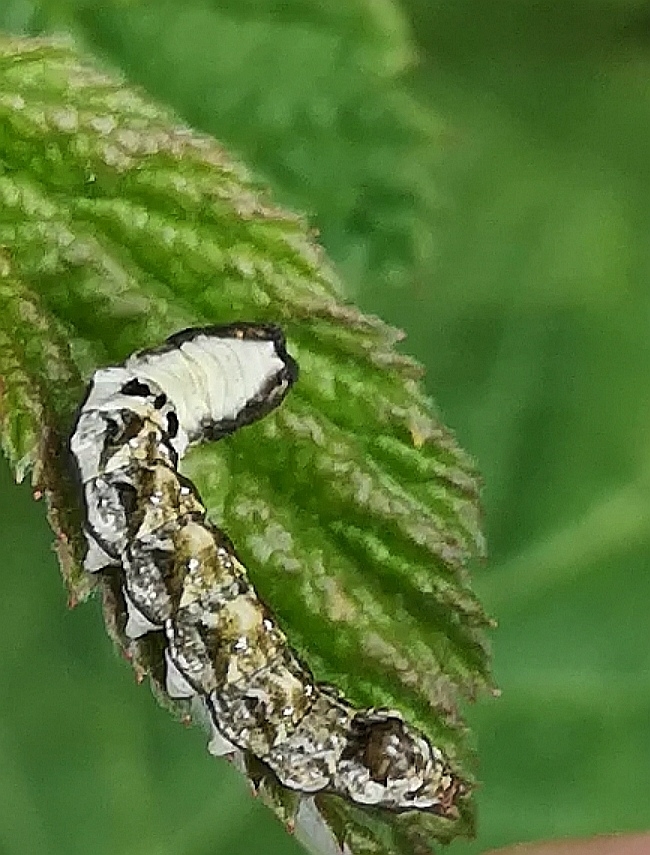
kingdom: Animalia
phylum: Arthropoda
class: Insecta
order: Lepidoptera
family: Drepanidae
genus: Thyatira
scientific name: Thyatira batis
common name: Peach blossom
